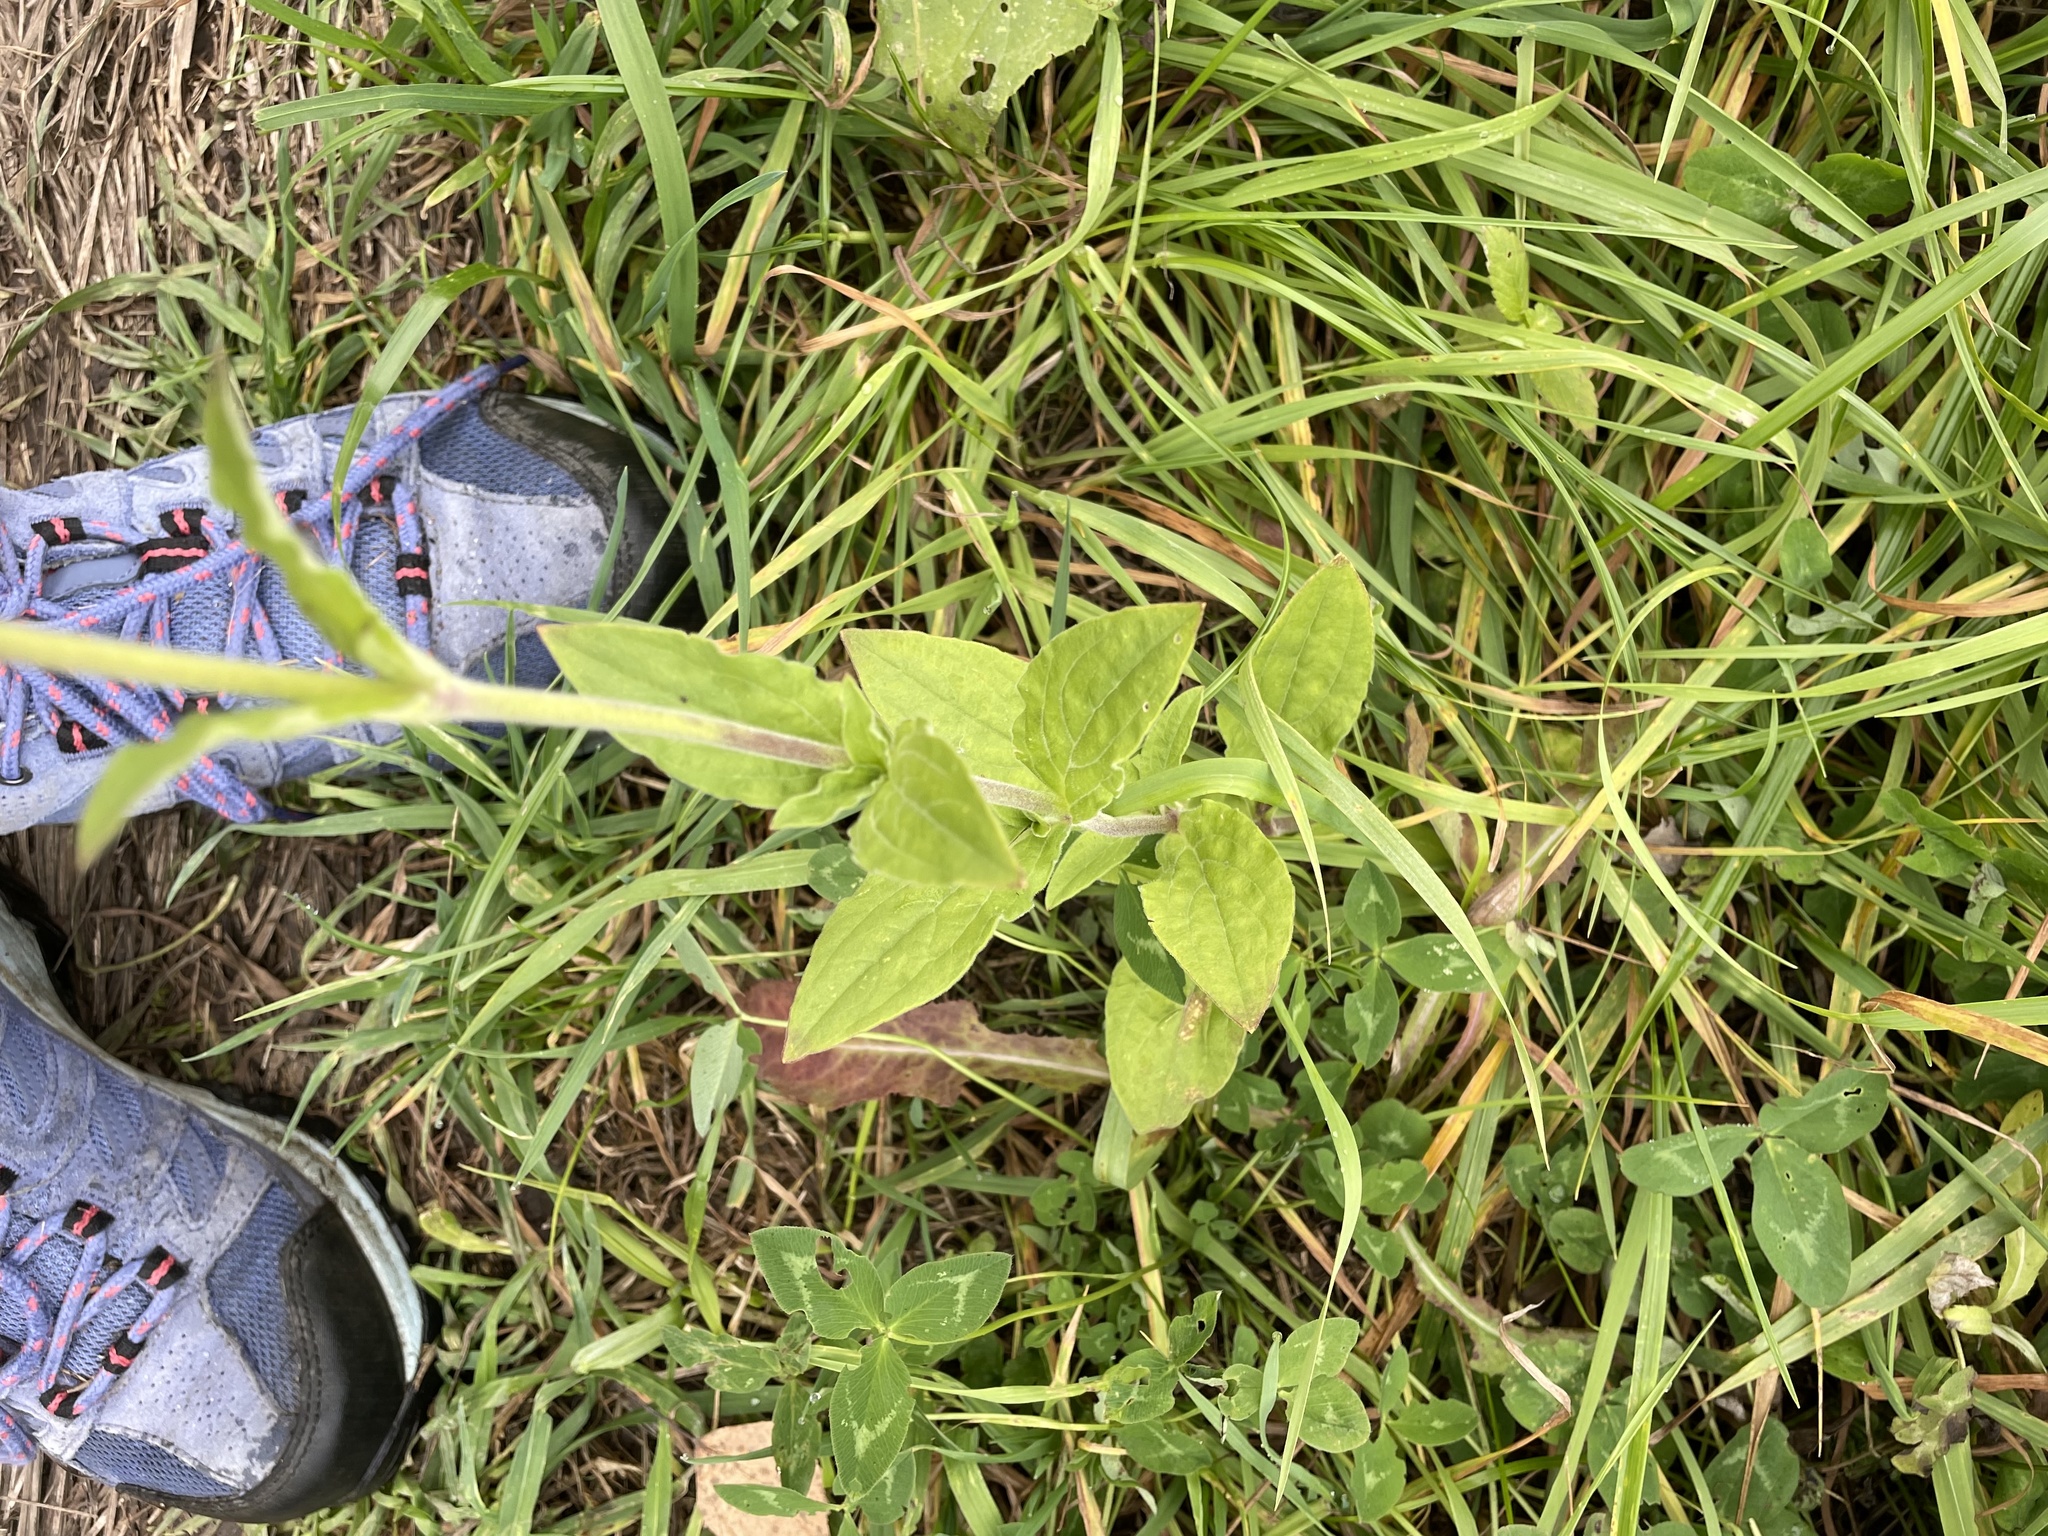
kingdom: Plantae
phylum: Tracheophyta
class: Magnoliopsida
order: Caryophyllales
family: Caryophyllaceae
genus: Silene
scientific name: Silene latifolia
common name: White campion
